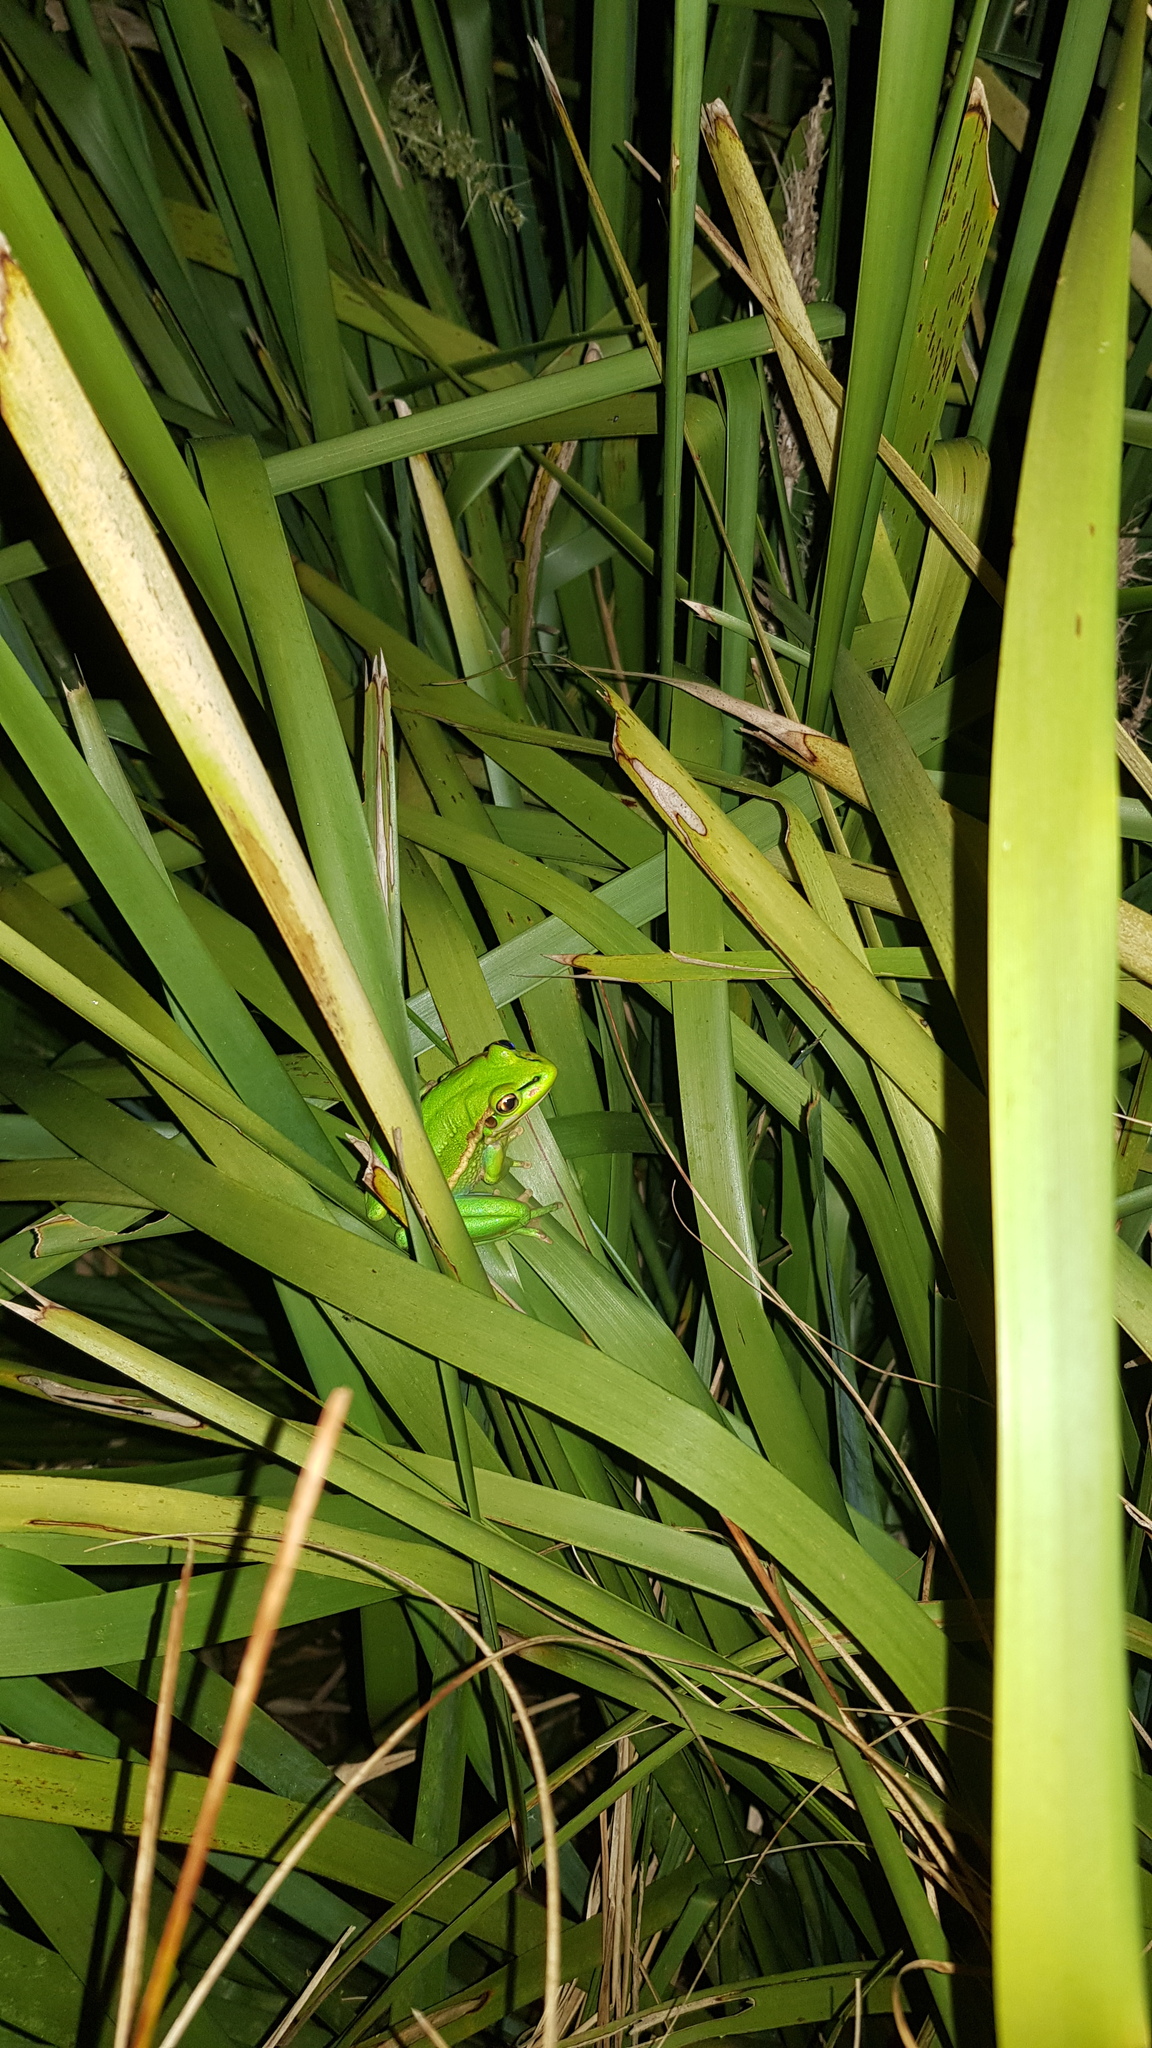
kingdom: Animalia
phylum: Chordata
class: Amphibia
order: Anura
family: Pelodryadidae
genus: Ranoidea
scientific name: Ranoidea aurea
